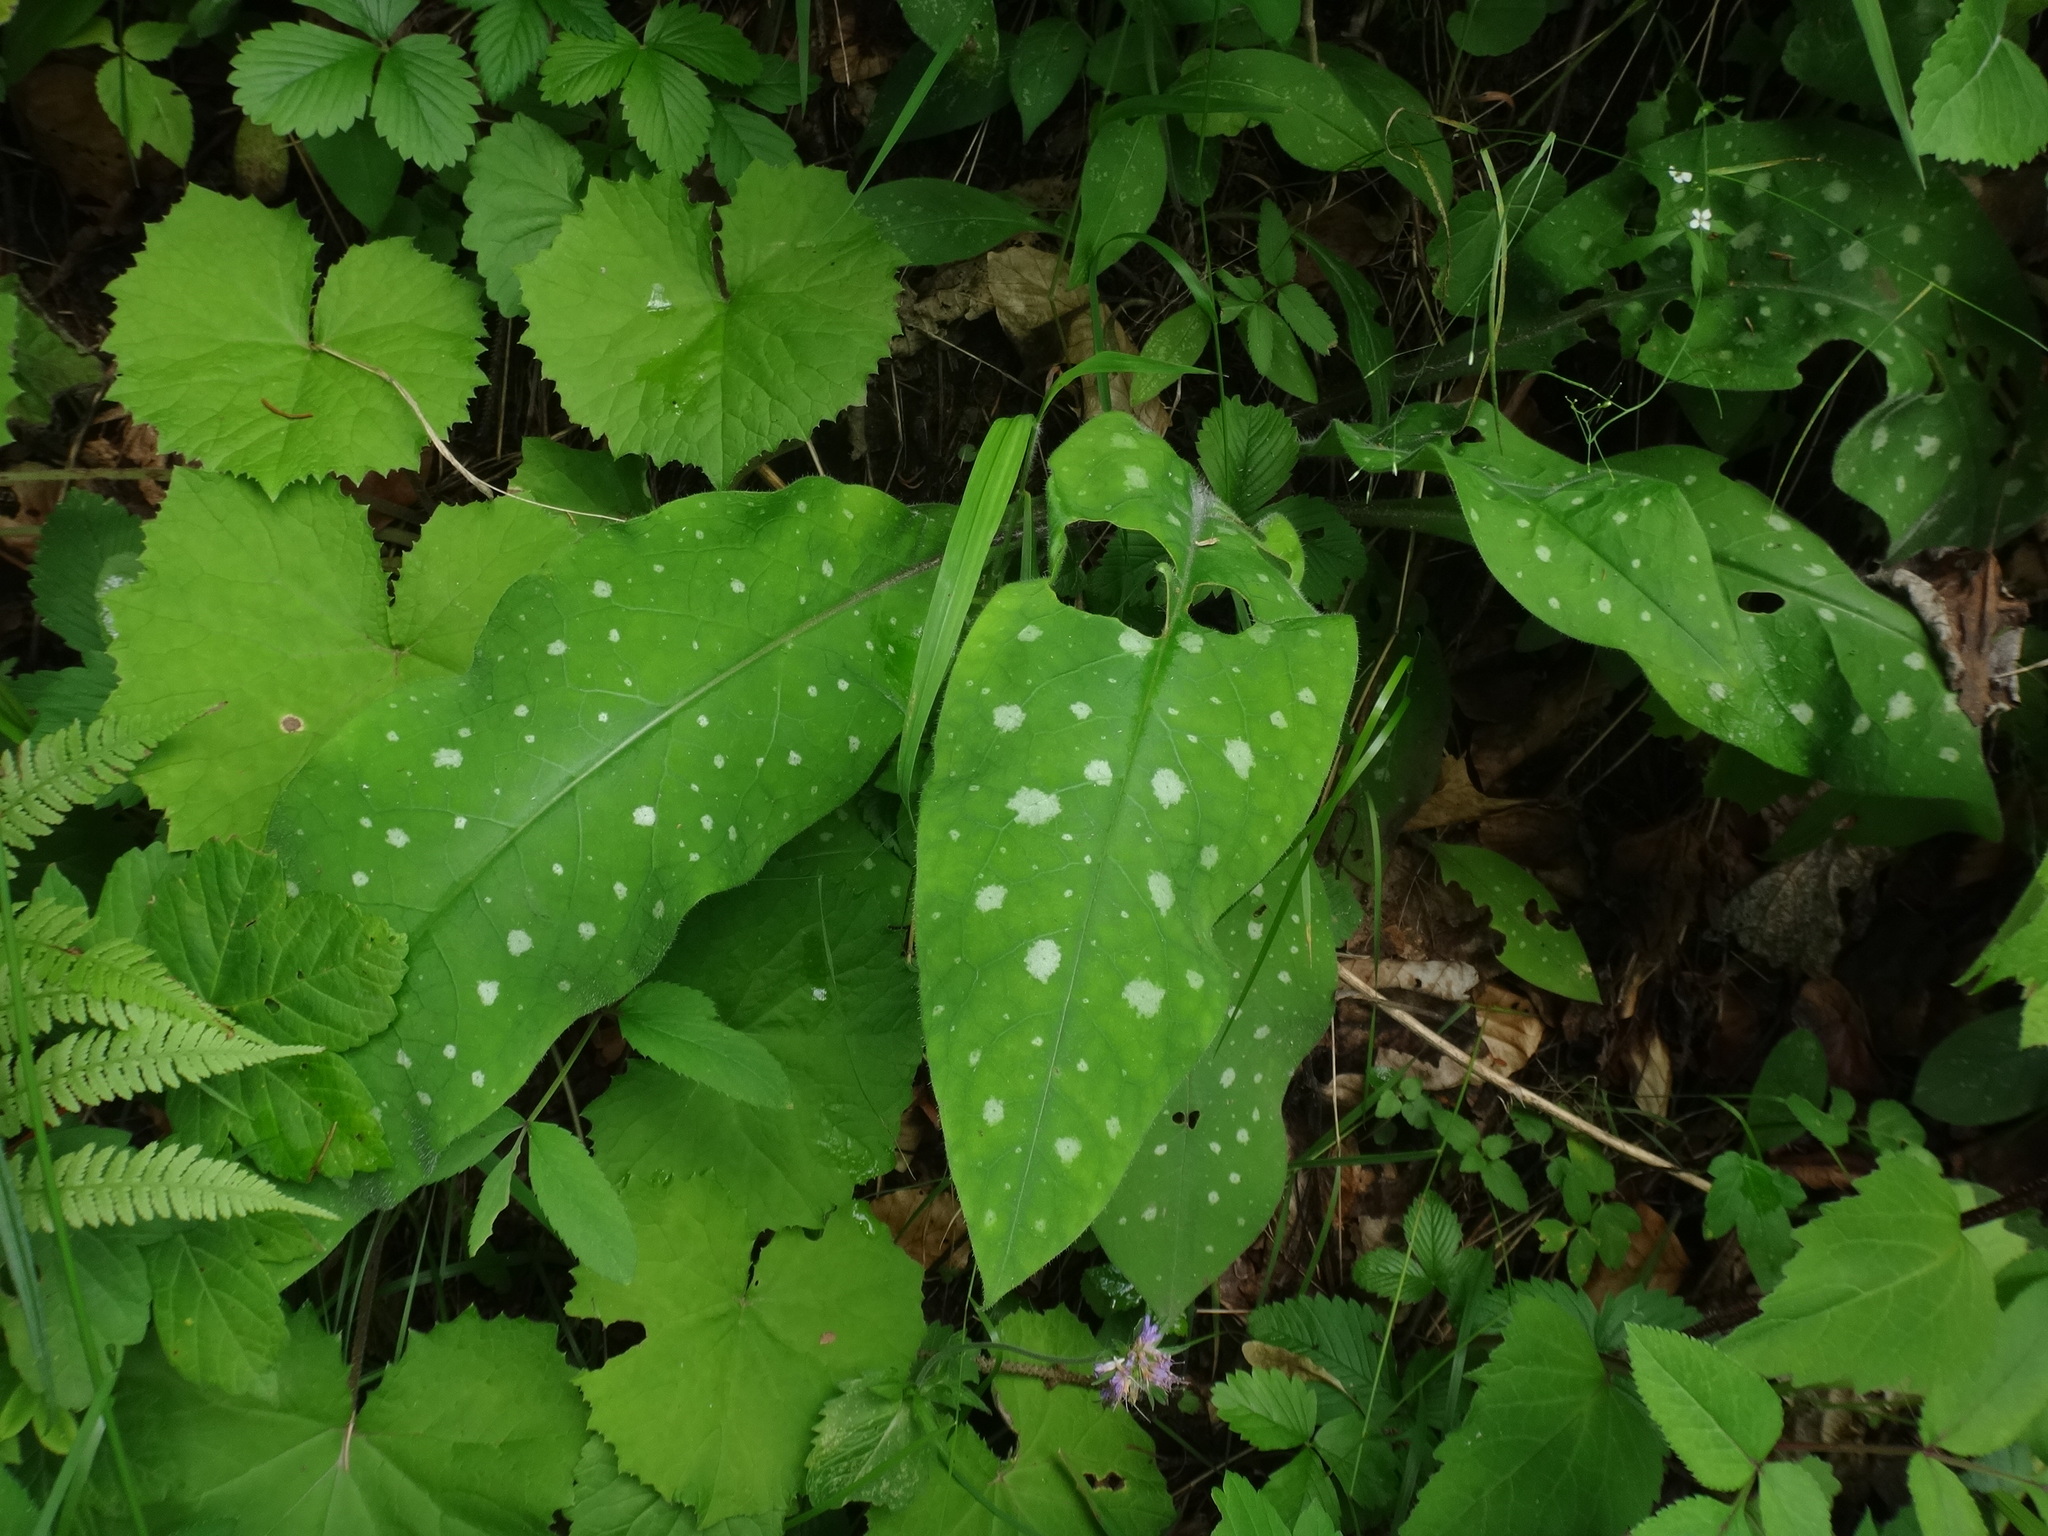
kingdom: Plantae
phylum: Tracheophyta
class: Magnoliopsida
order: Boraginales
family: Boraginaceae
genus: Pulmonaria
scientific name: Pulmonaria stiriaca
